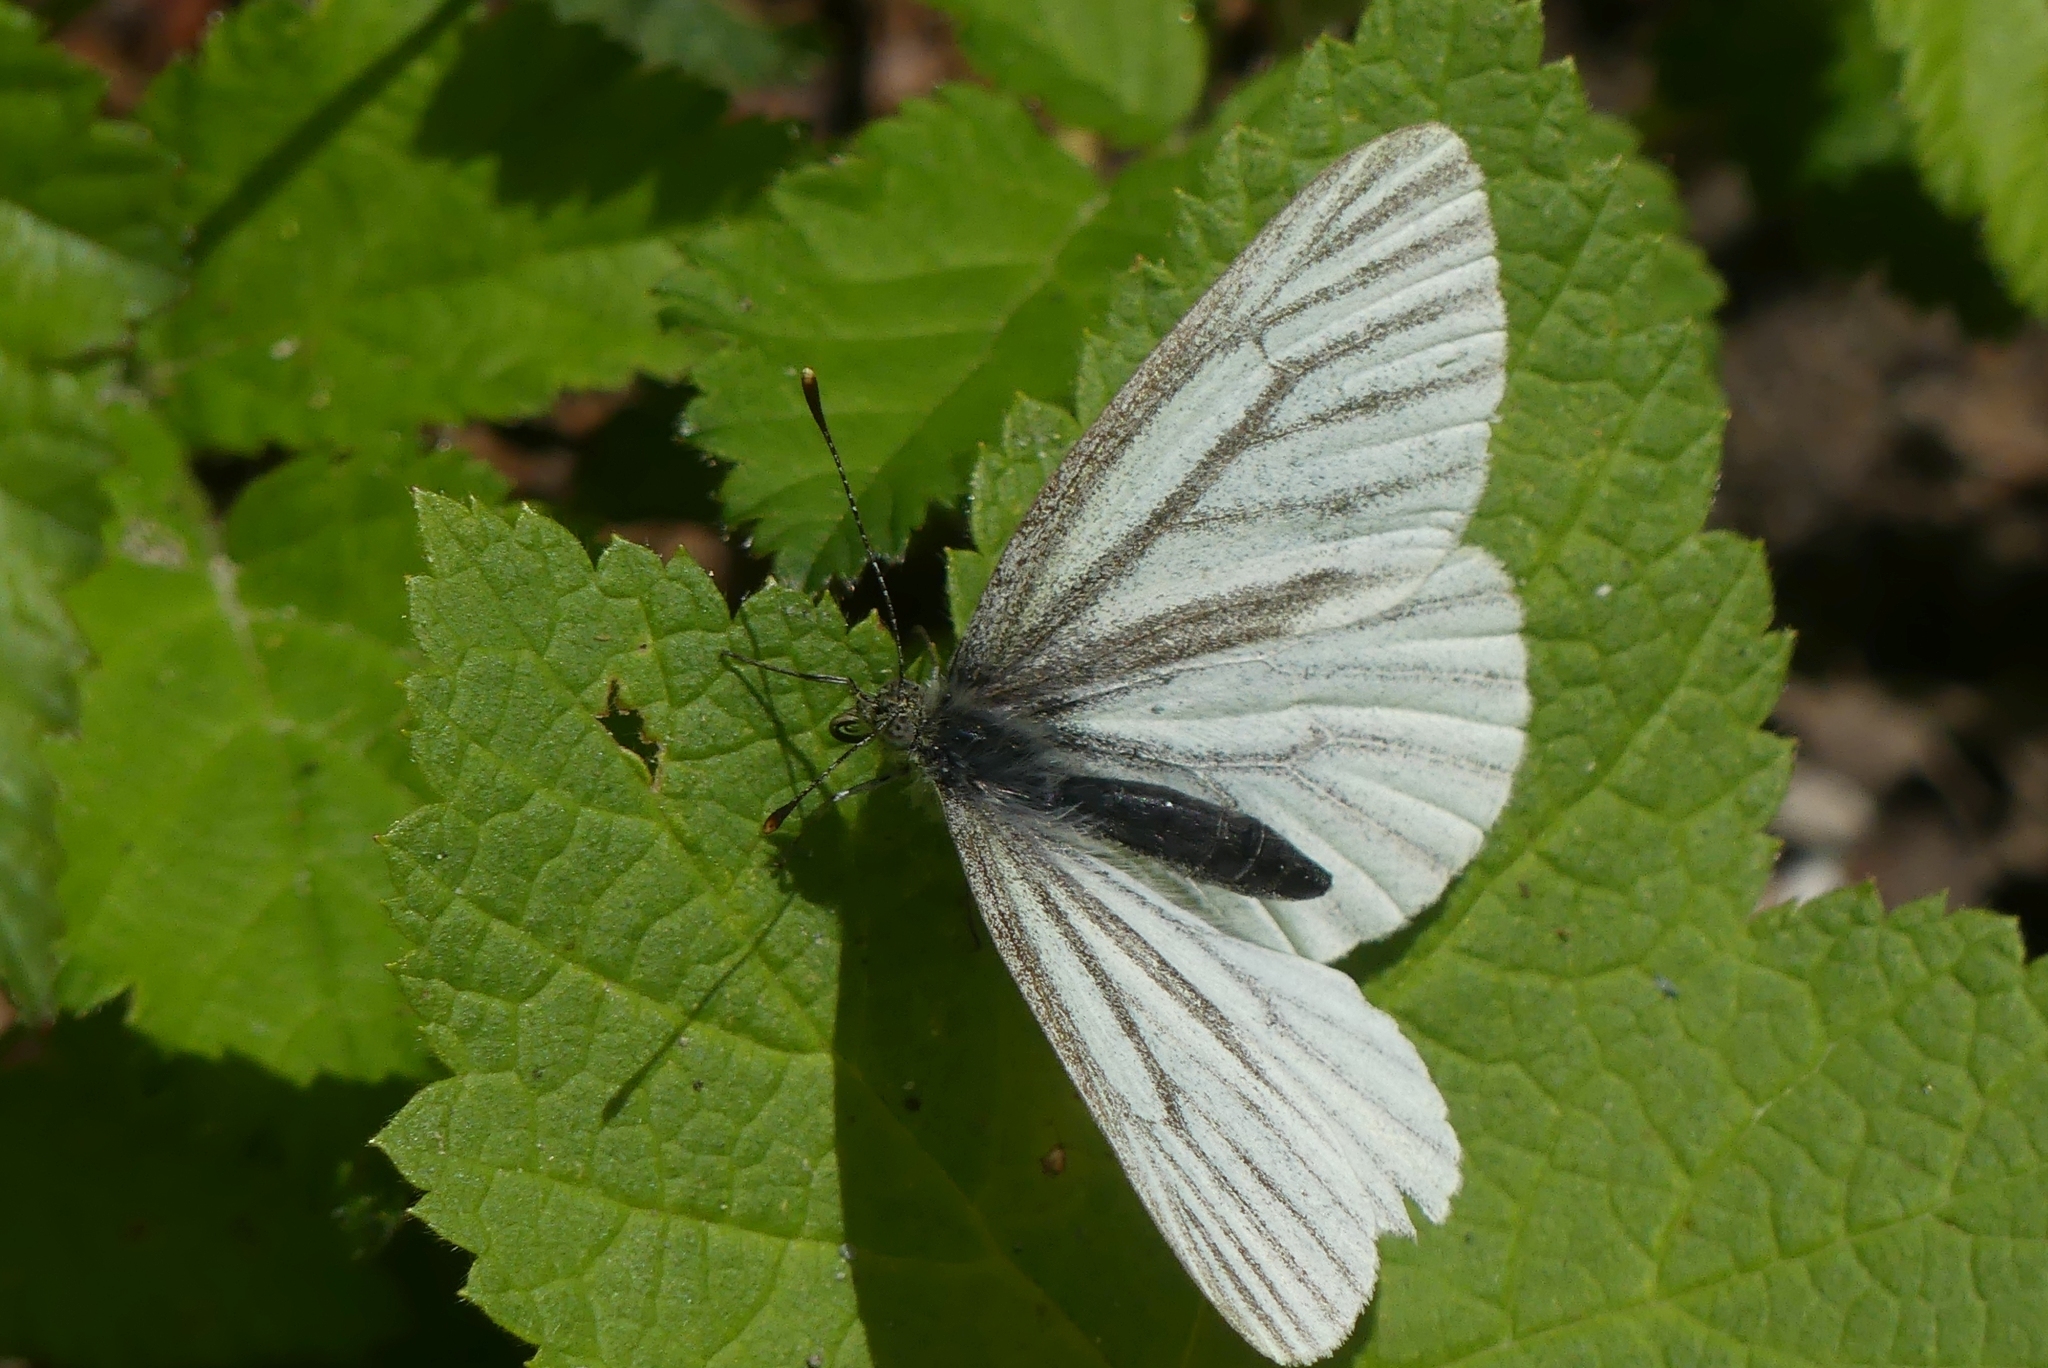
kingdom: Animalia
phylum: Arthropoda
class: Insecta
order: Lepidoptera
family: Pieridae
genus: Pieris
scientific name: Pieris marginalis
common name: Margined white
